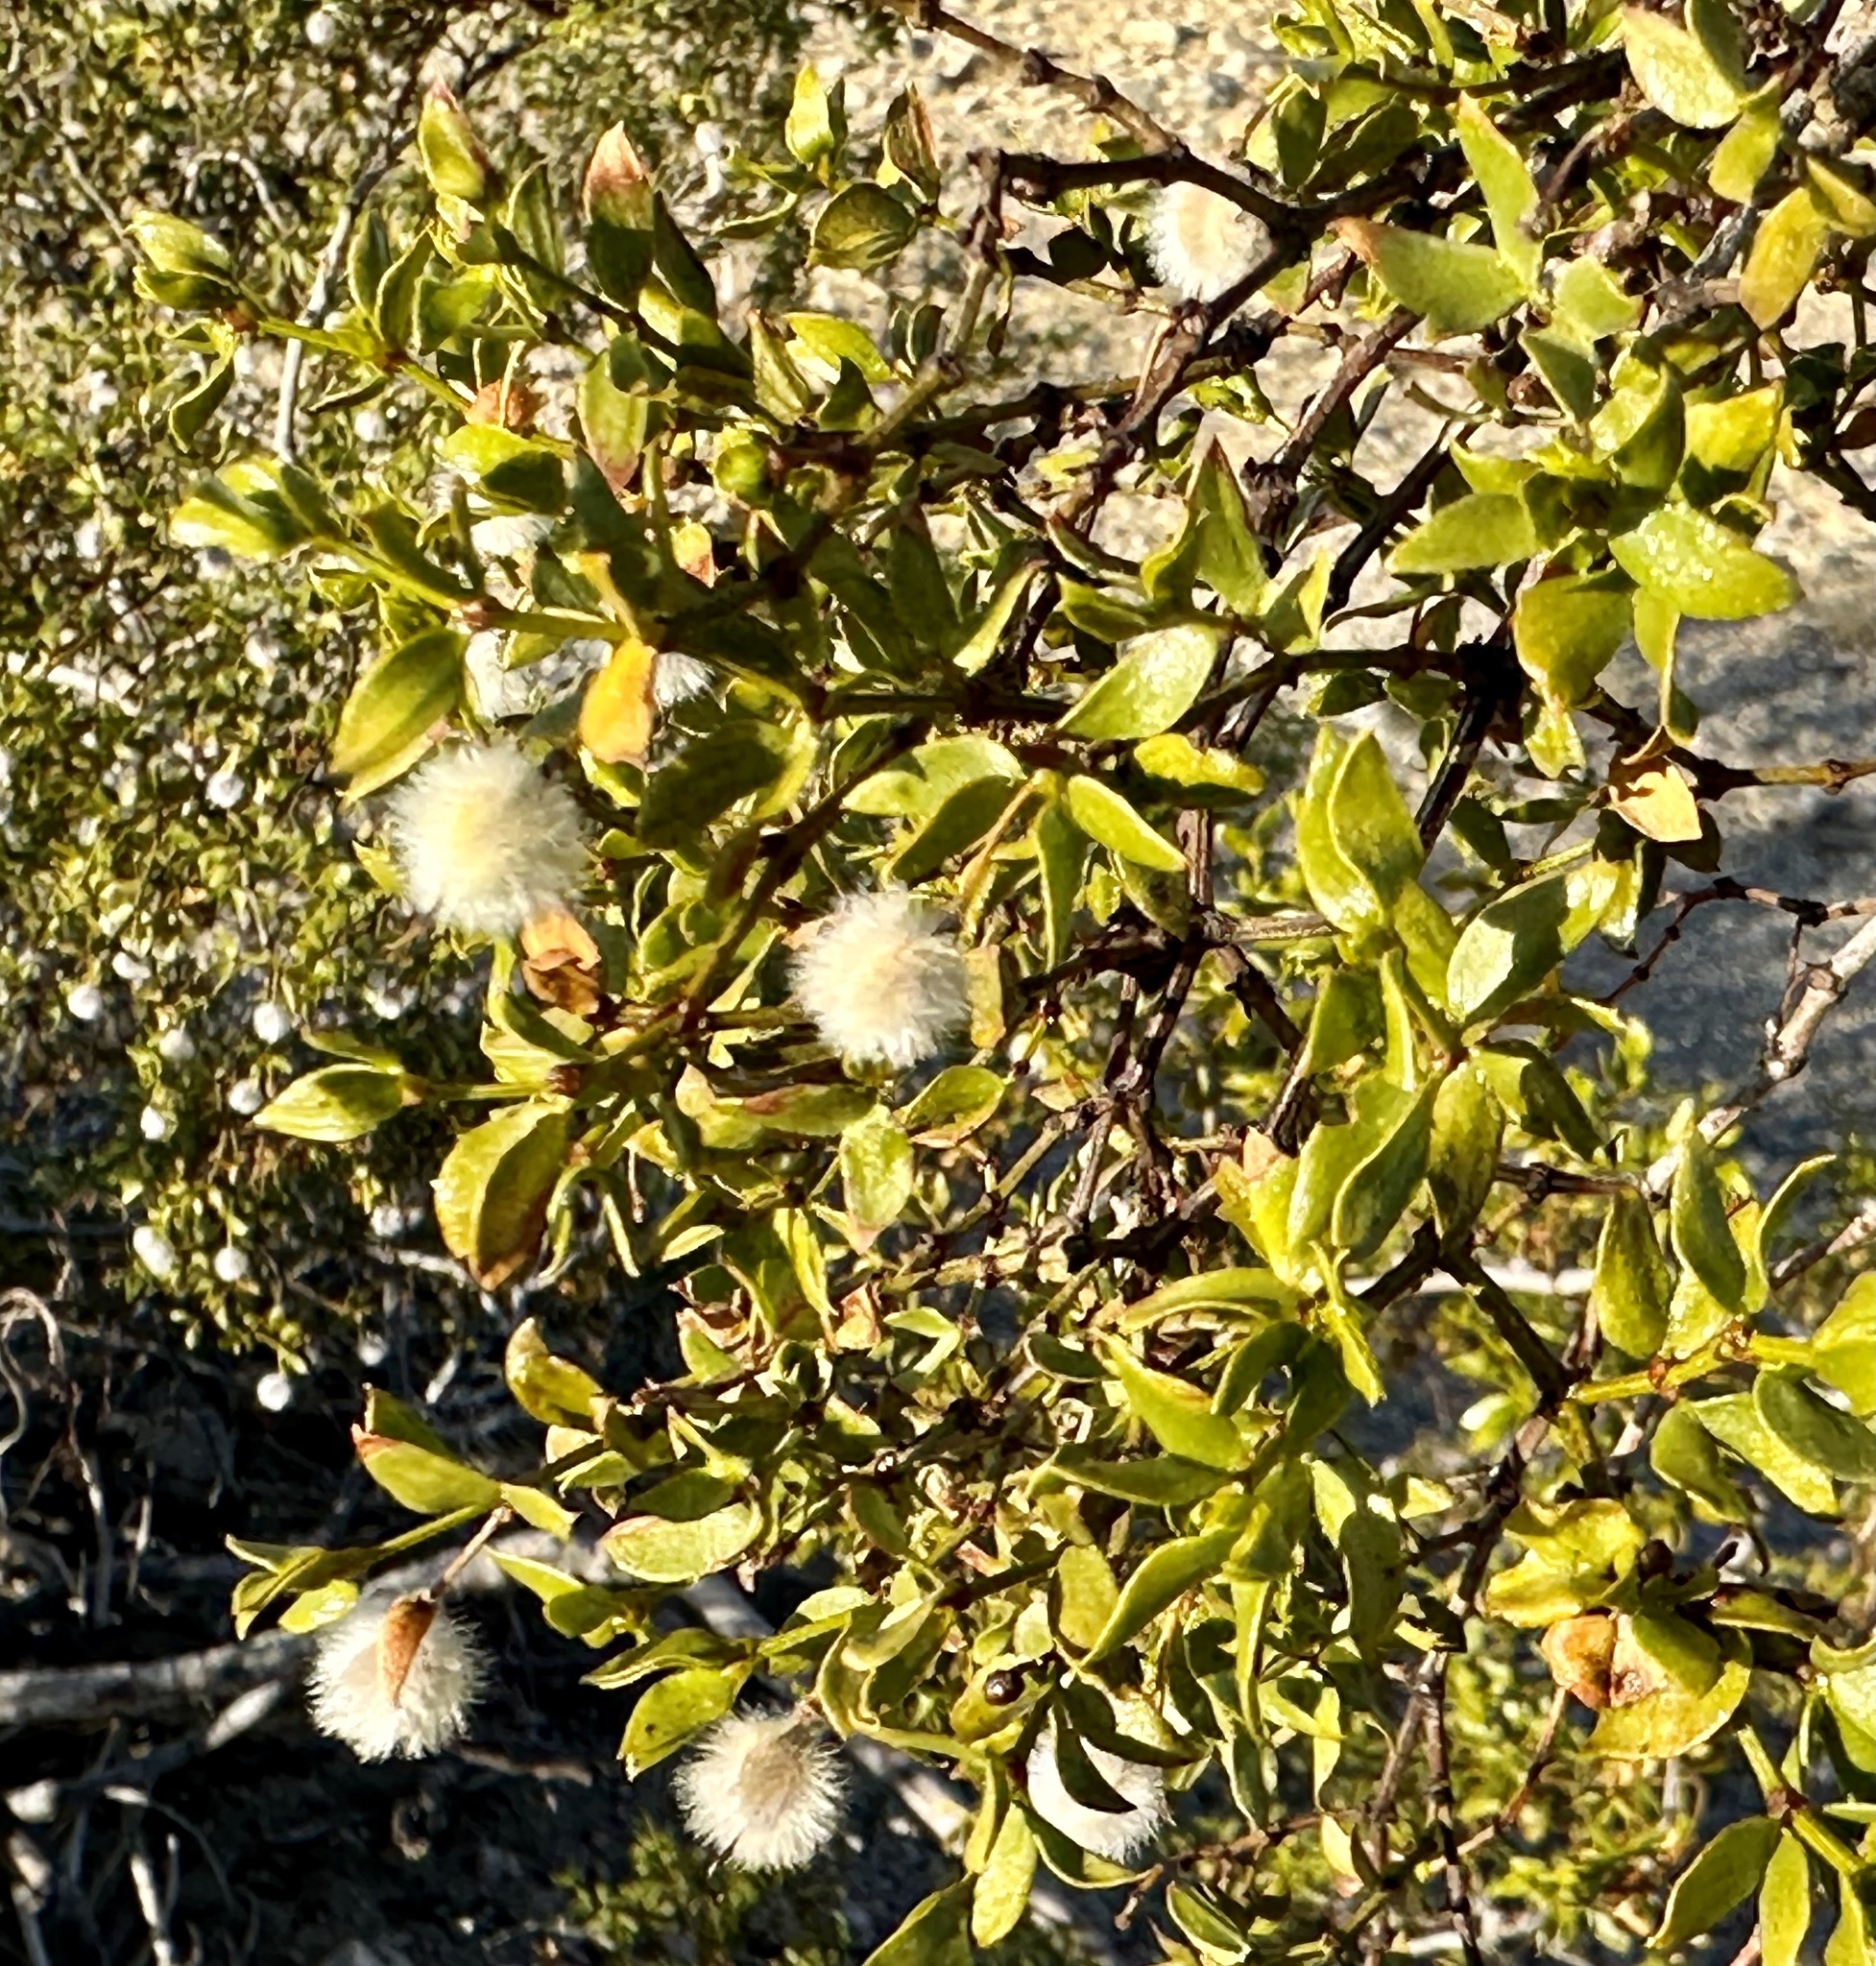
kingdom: Plantae
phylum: Tracheophyta
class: Magnoliopsida
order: Zygophyllales
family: Zygophyllaceae
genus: Larrea
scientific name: Larrea tridentata
